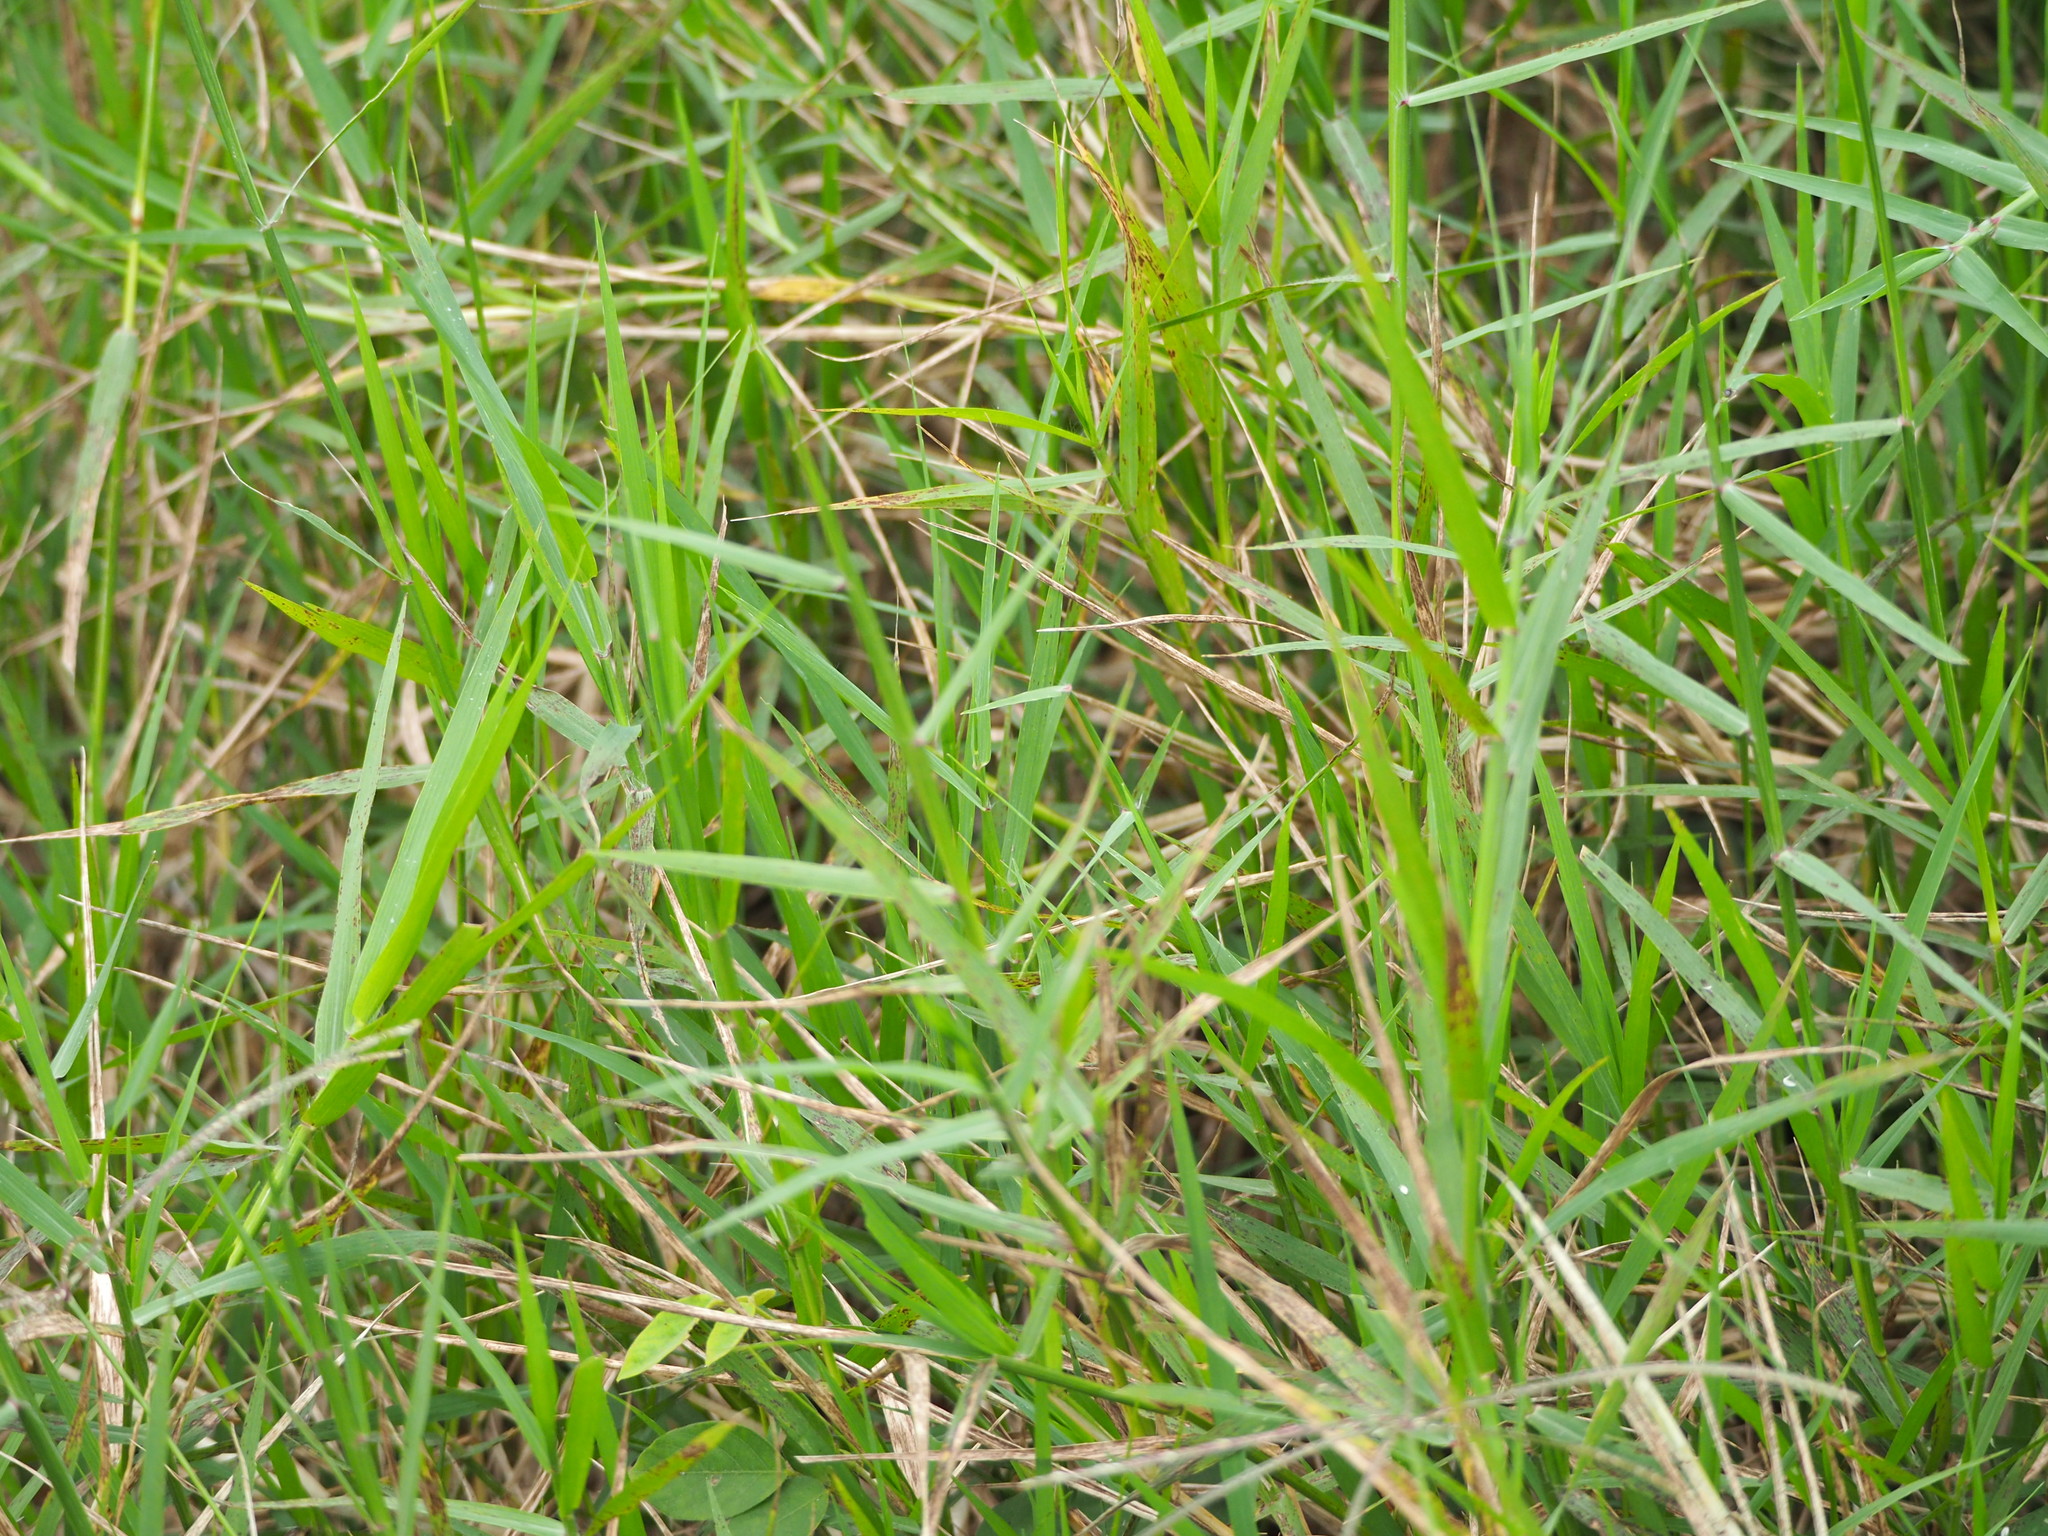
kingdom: Plantae
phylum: Tracheophyta
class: Liliopsida
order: Poales
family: Poaceae
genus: Cynodon
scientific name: Cynodon nlemfuensis
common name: African bermudagrass
